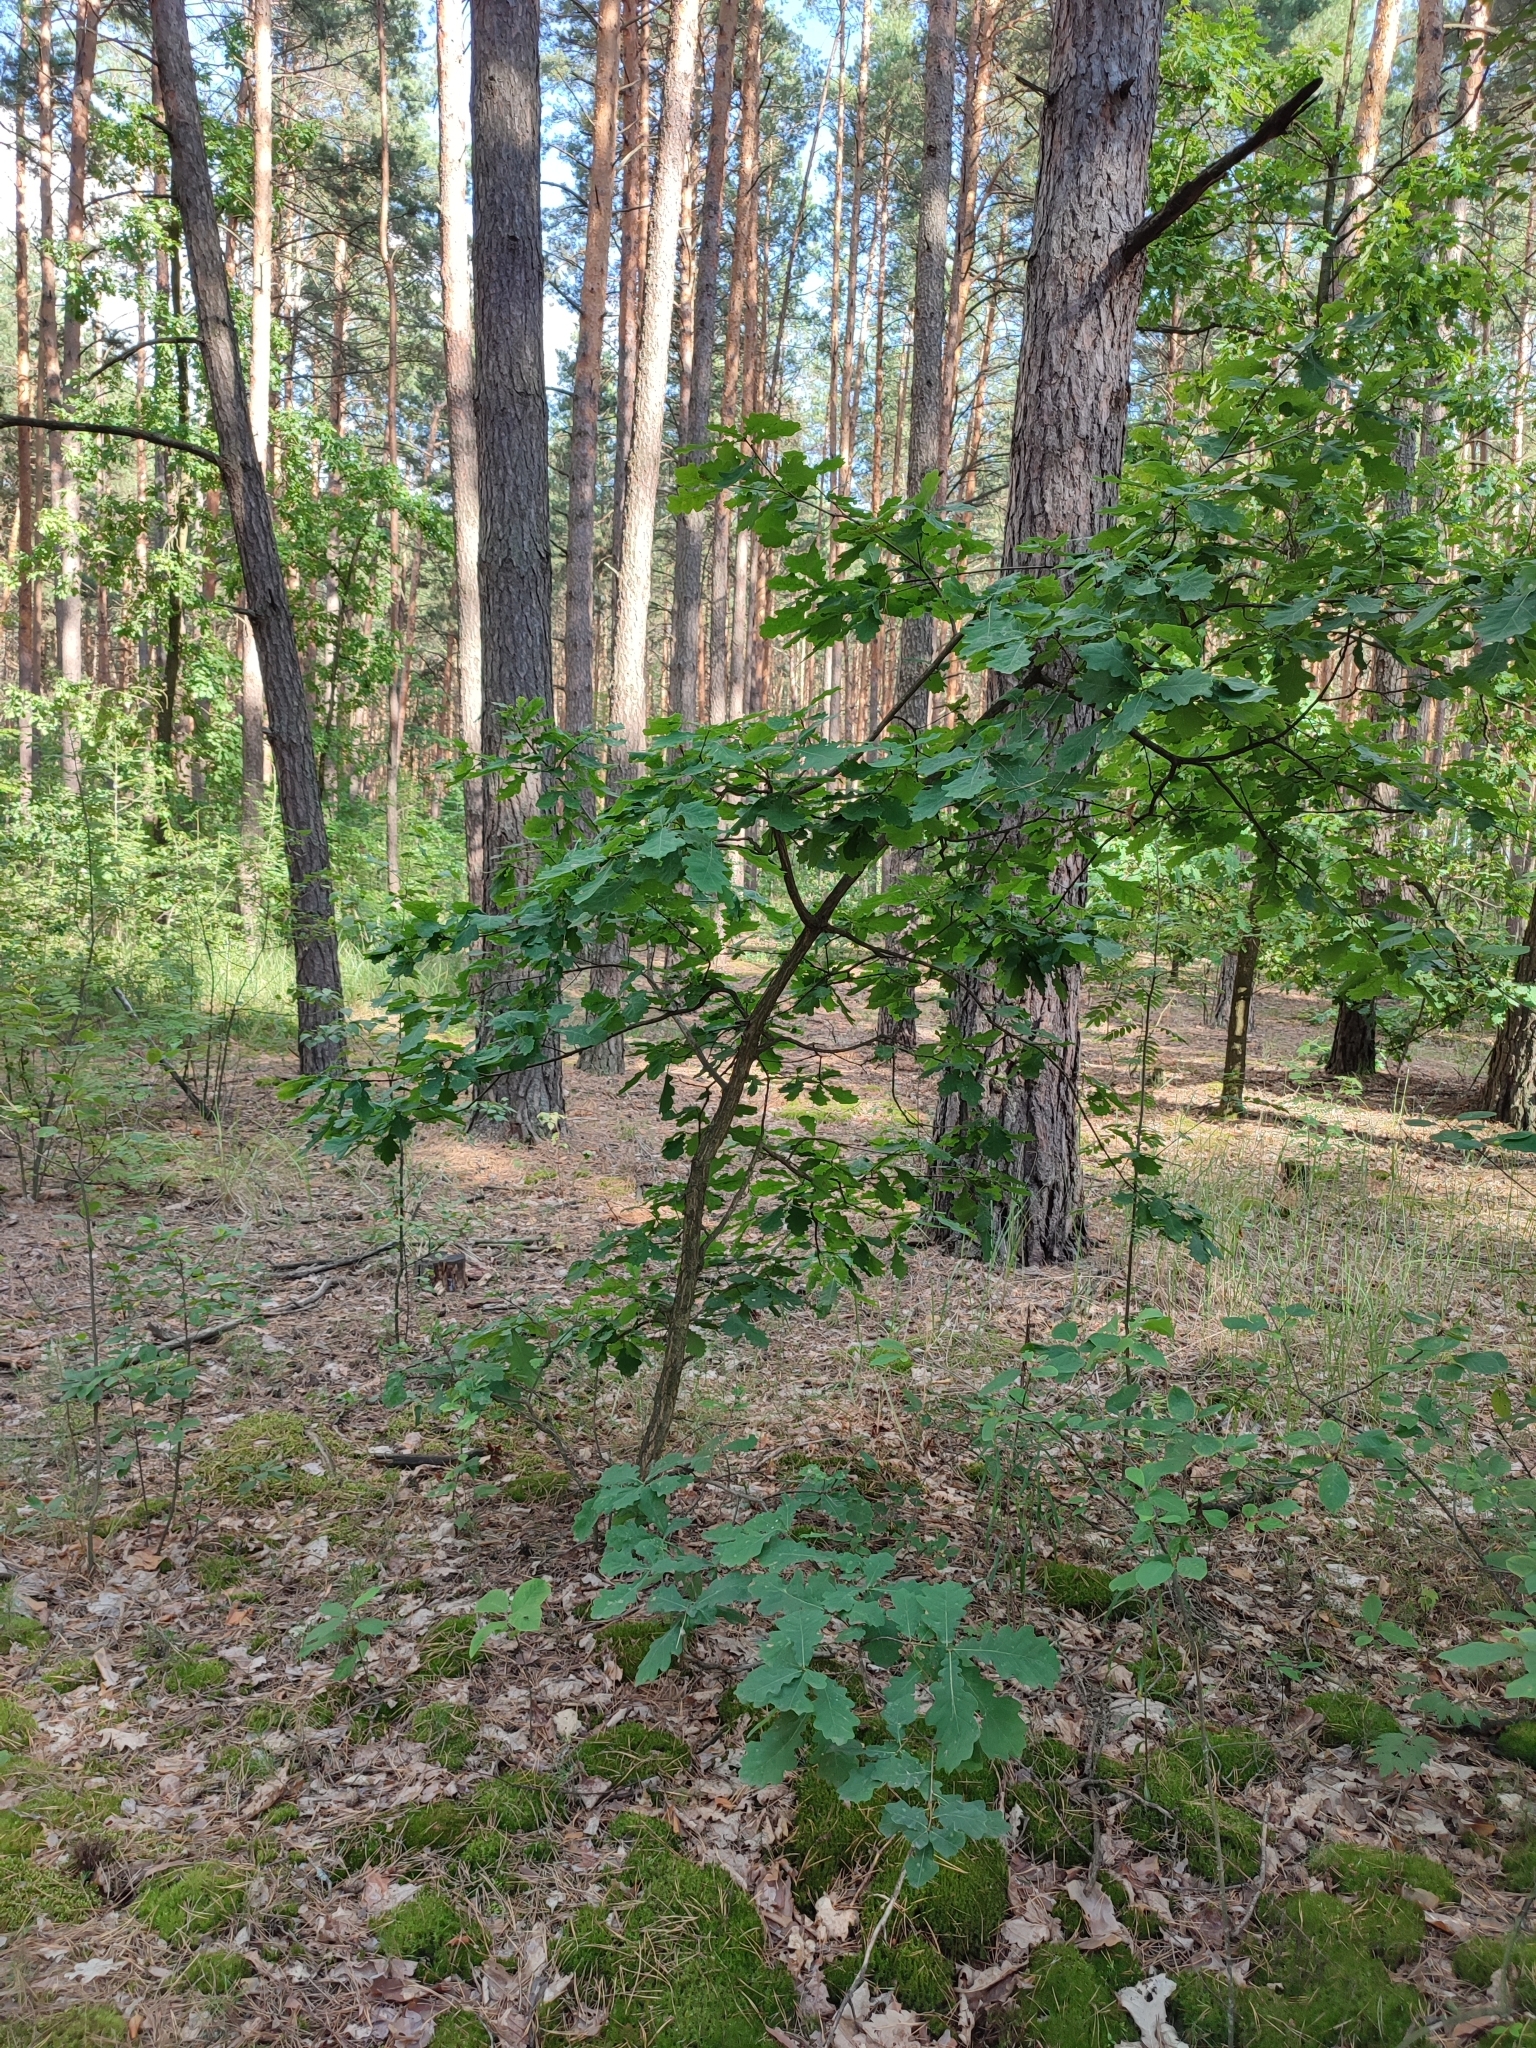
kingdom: Plantae
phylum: Tracheophyta
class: Magnoliopsida
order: Fagales
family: Fagaceae
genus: Quercus
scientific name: Quercus robur
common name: Pedunculate oak
